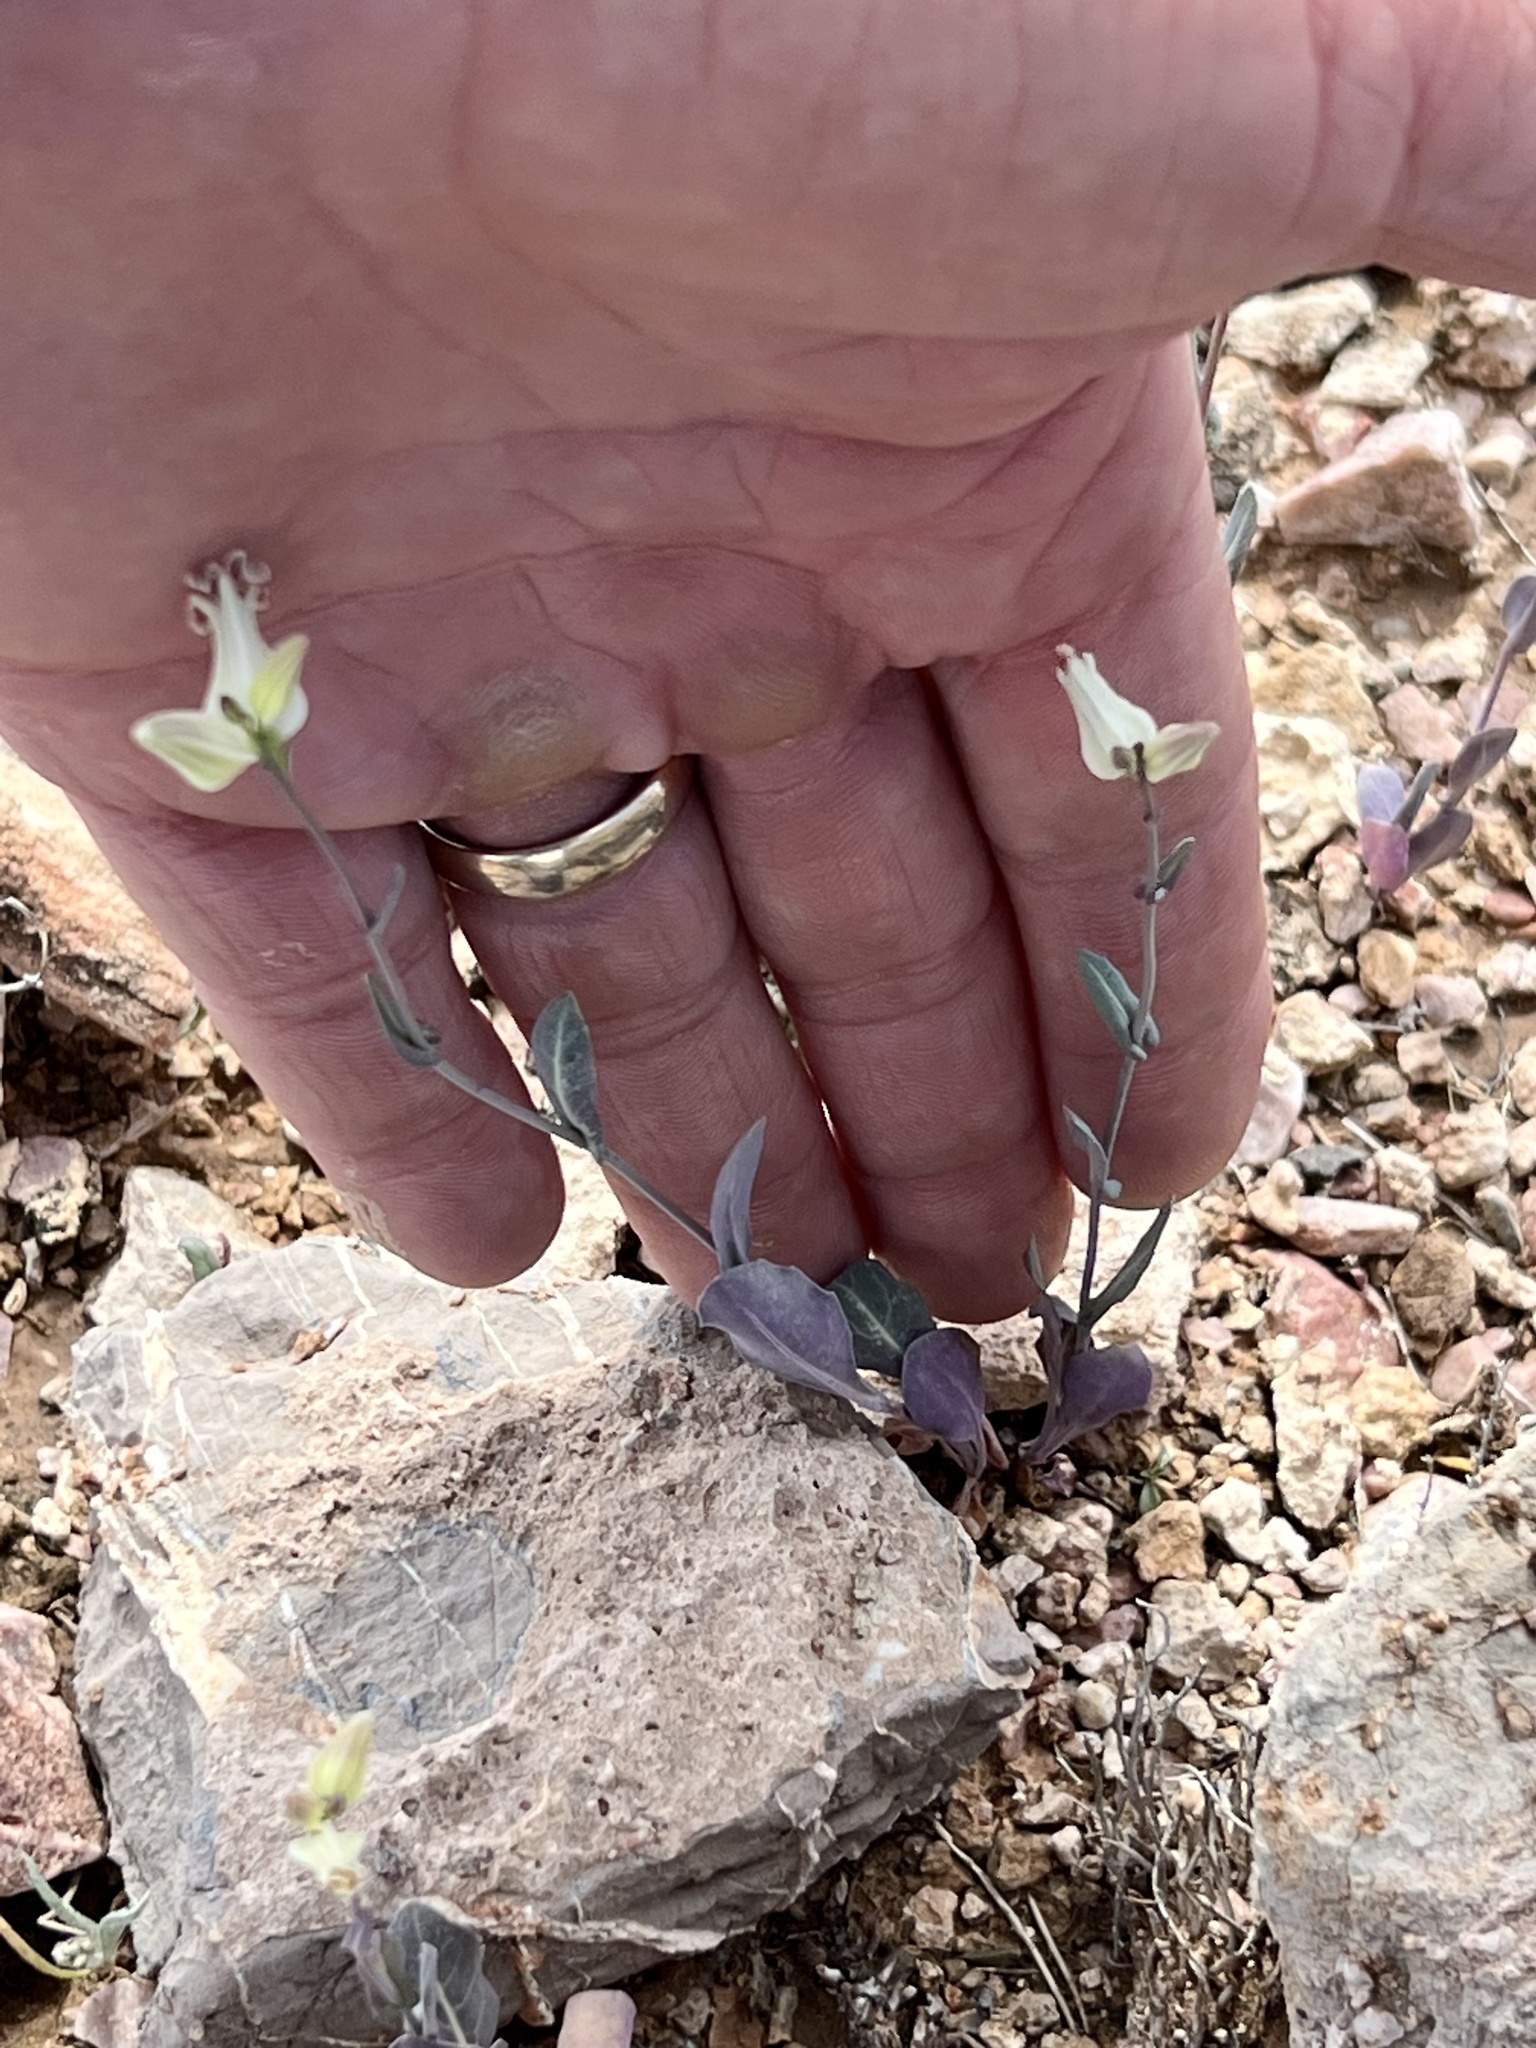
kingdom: Plantae
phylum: Tracheophyta
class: Magnoliopsida
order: Brassicales
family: Brassicaceae
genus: Streptanthus
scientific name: Streptanthus carinatus
